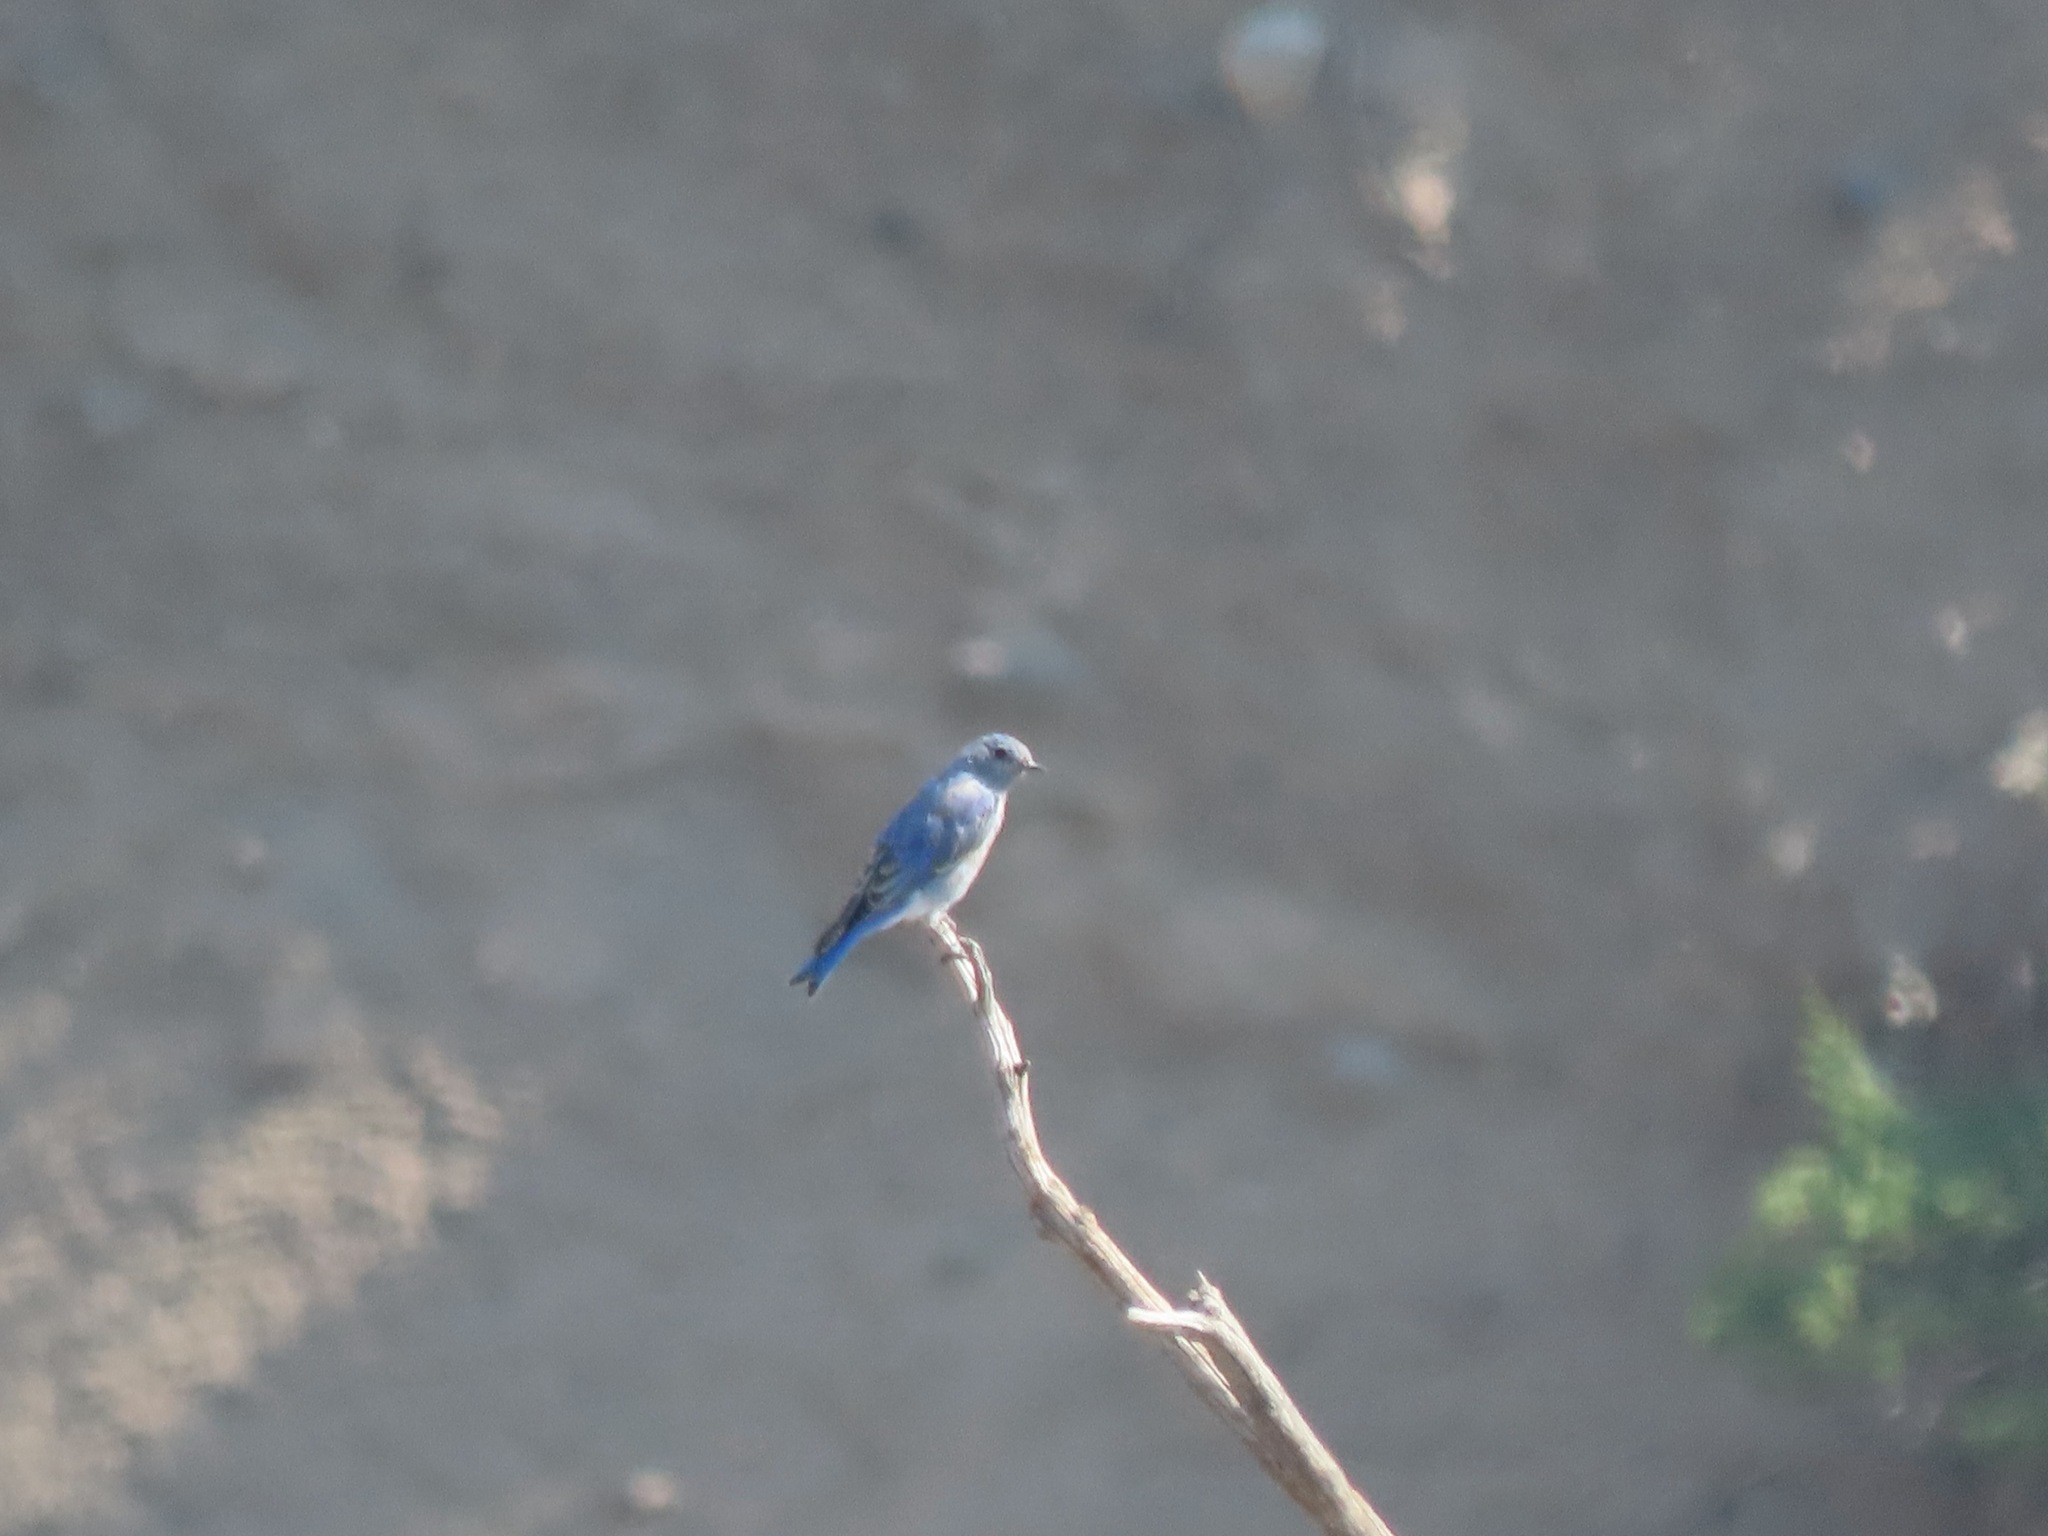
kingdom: Animalia
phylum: Chordata
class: Aves
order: Passeriformes
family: Turdidae
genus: Sialia
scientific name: Sialia currucoides
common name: Mountain bluebird
